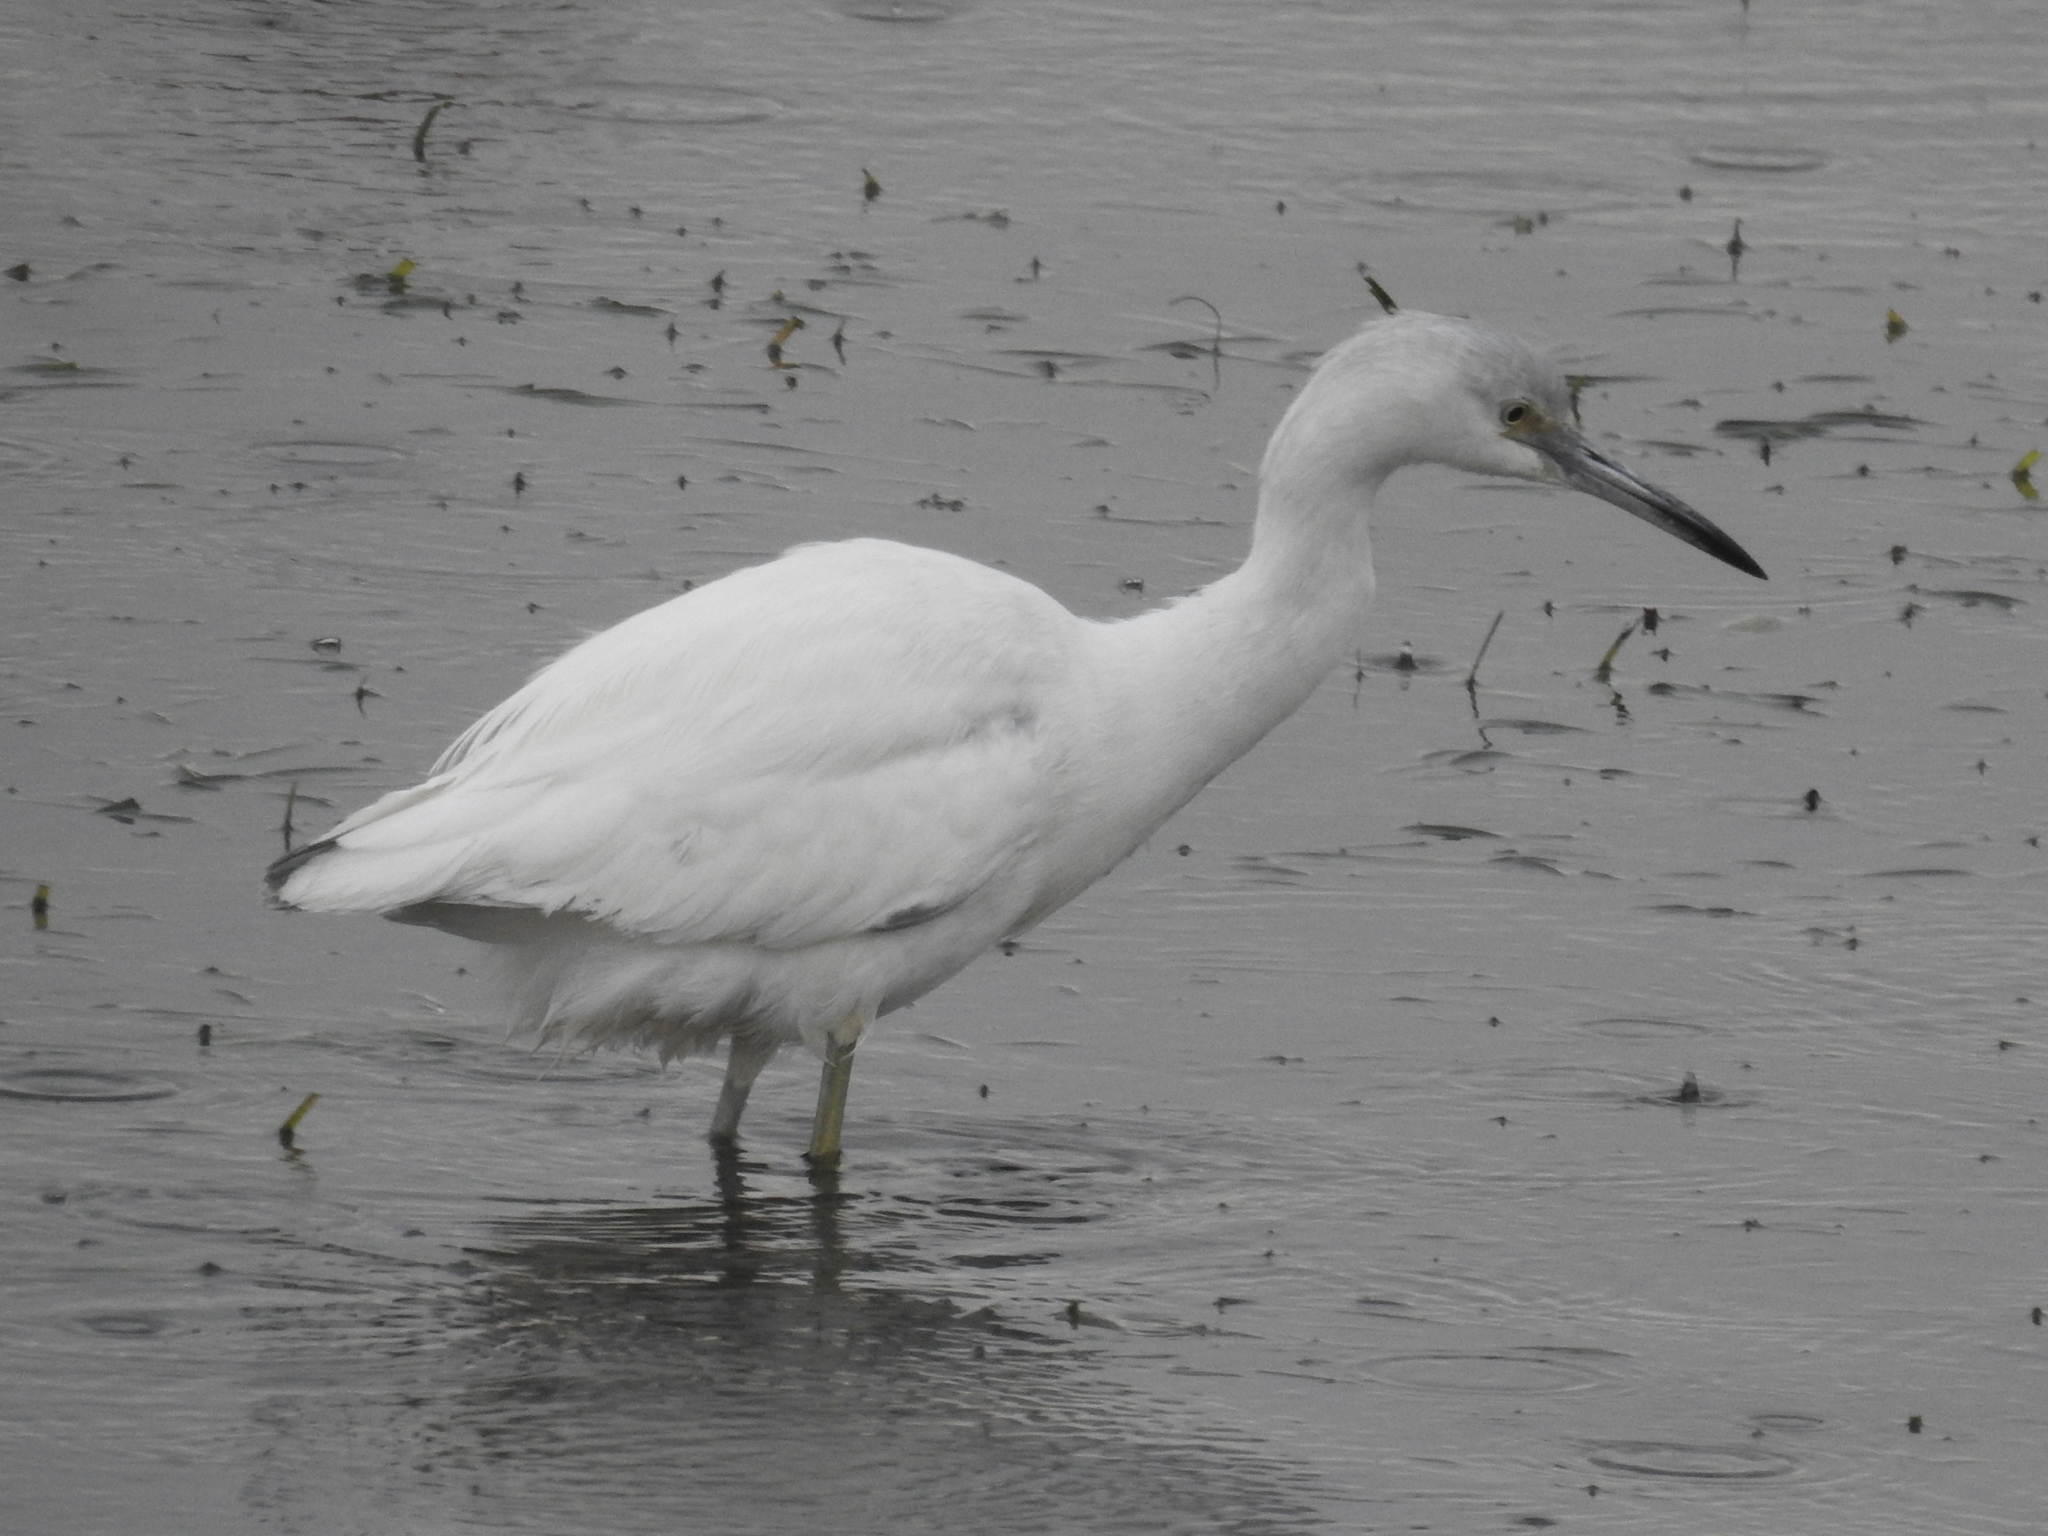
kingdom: Animalia
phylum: Chordata
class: Aves
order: Pelecaniformes
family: Ardeidae
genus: Egretta
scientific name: Egretta caerulea
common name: Little blue heron
